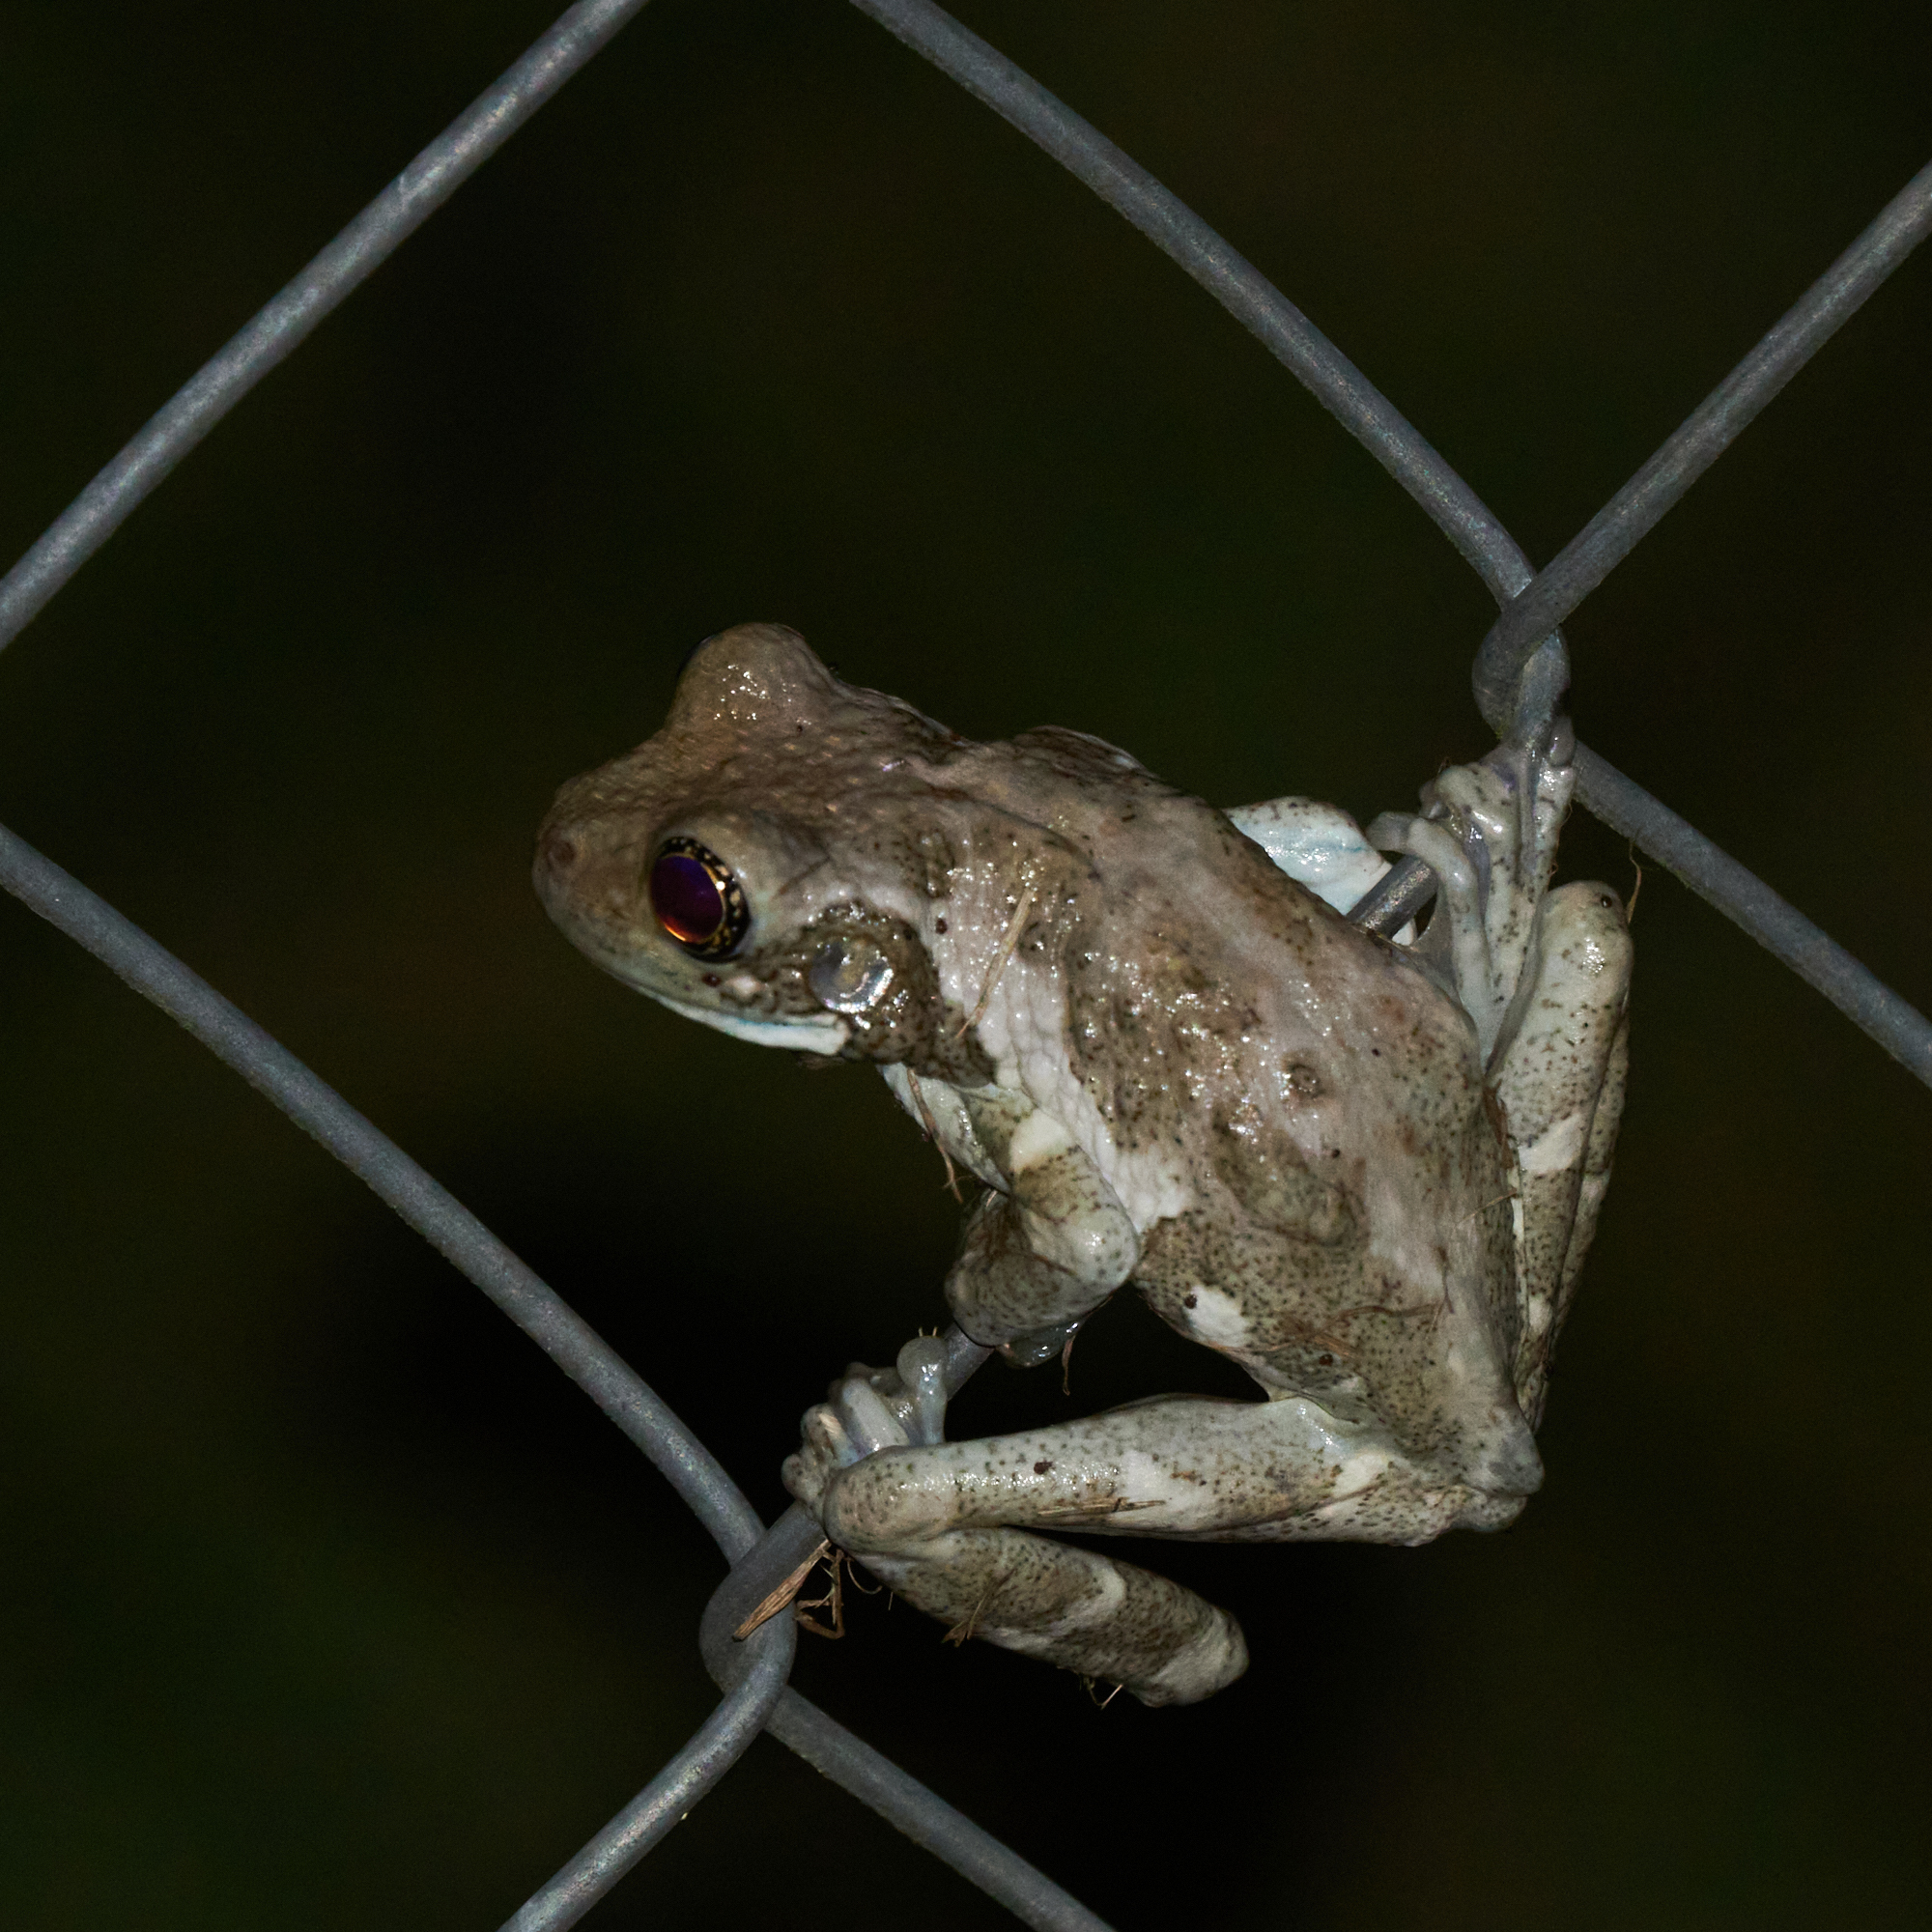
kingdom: Animalia
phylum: Chordata
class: Amphibia
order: Anura
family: Hylidae
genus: Trachycephalus
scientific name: Trachycephalus vermiculatus
